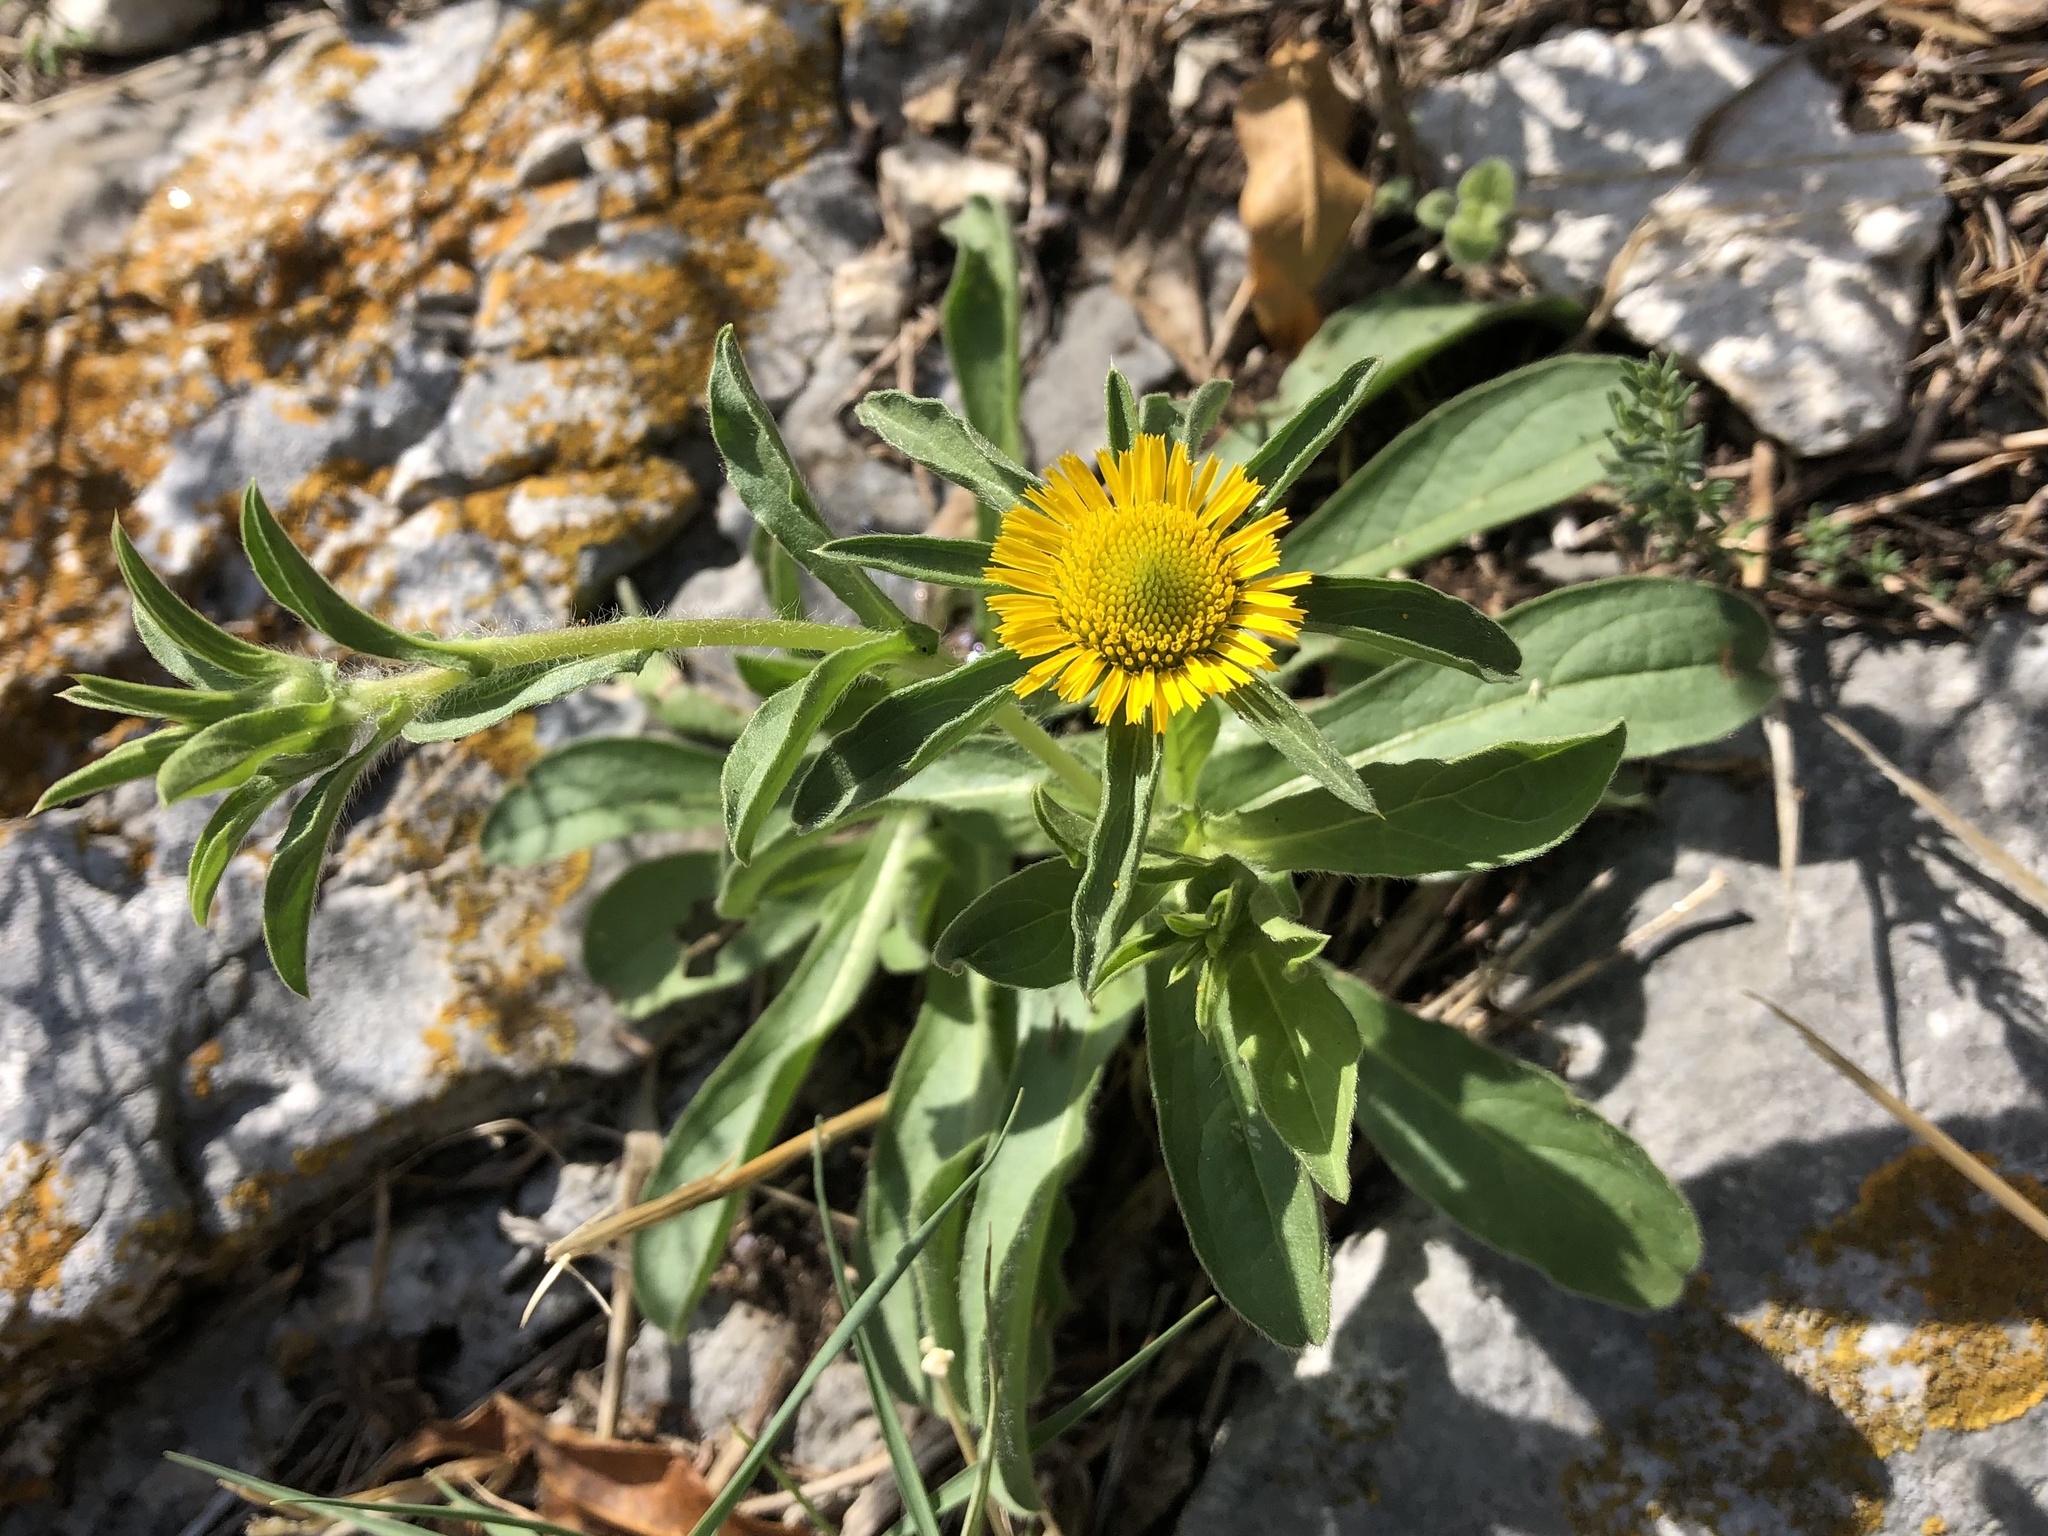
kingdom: Plantae
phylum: Tracheophyta
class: Magnoliopsida
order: Asterales
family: Asteraceae
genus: Pallenis
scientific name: Pallenis spinosa
